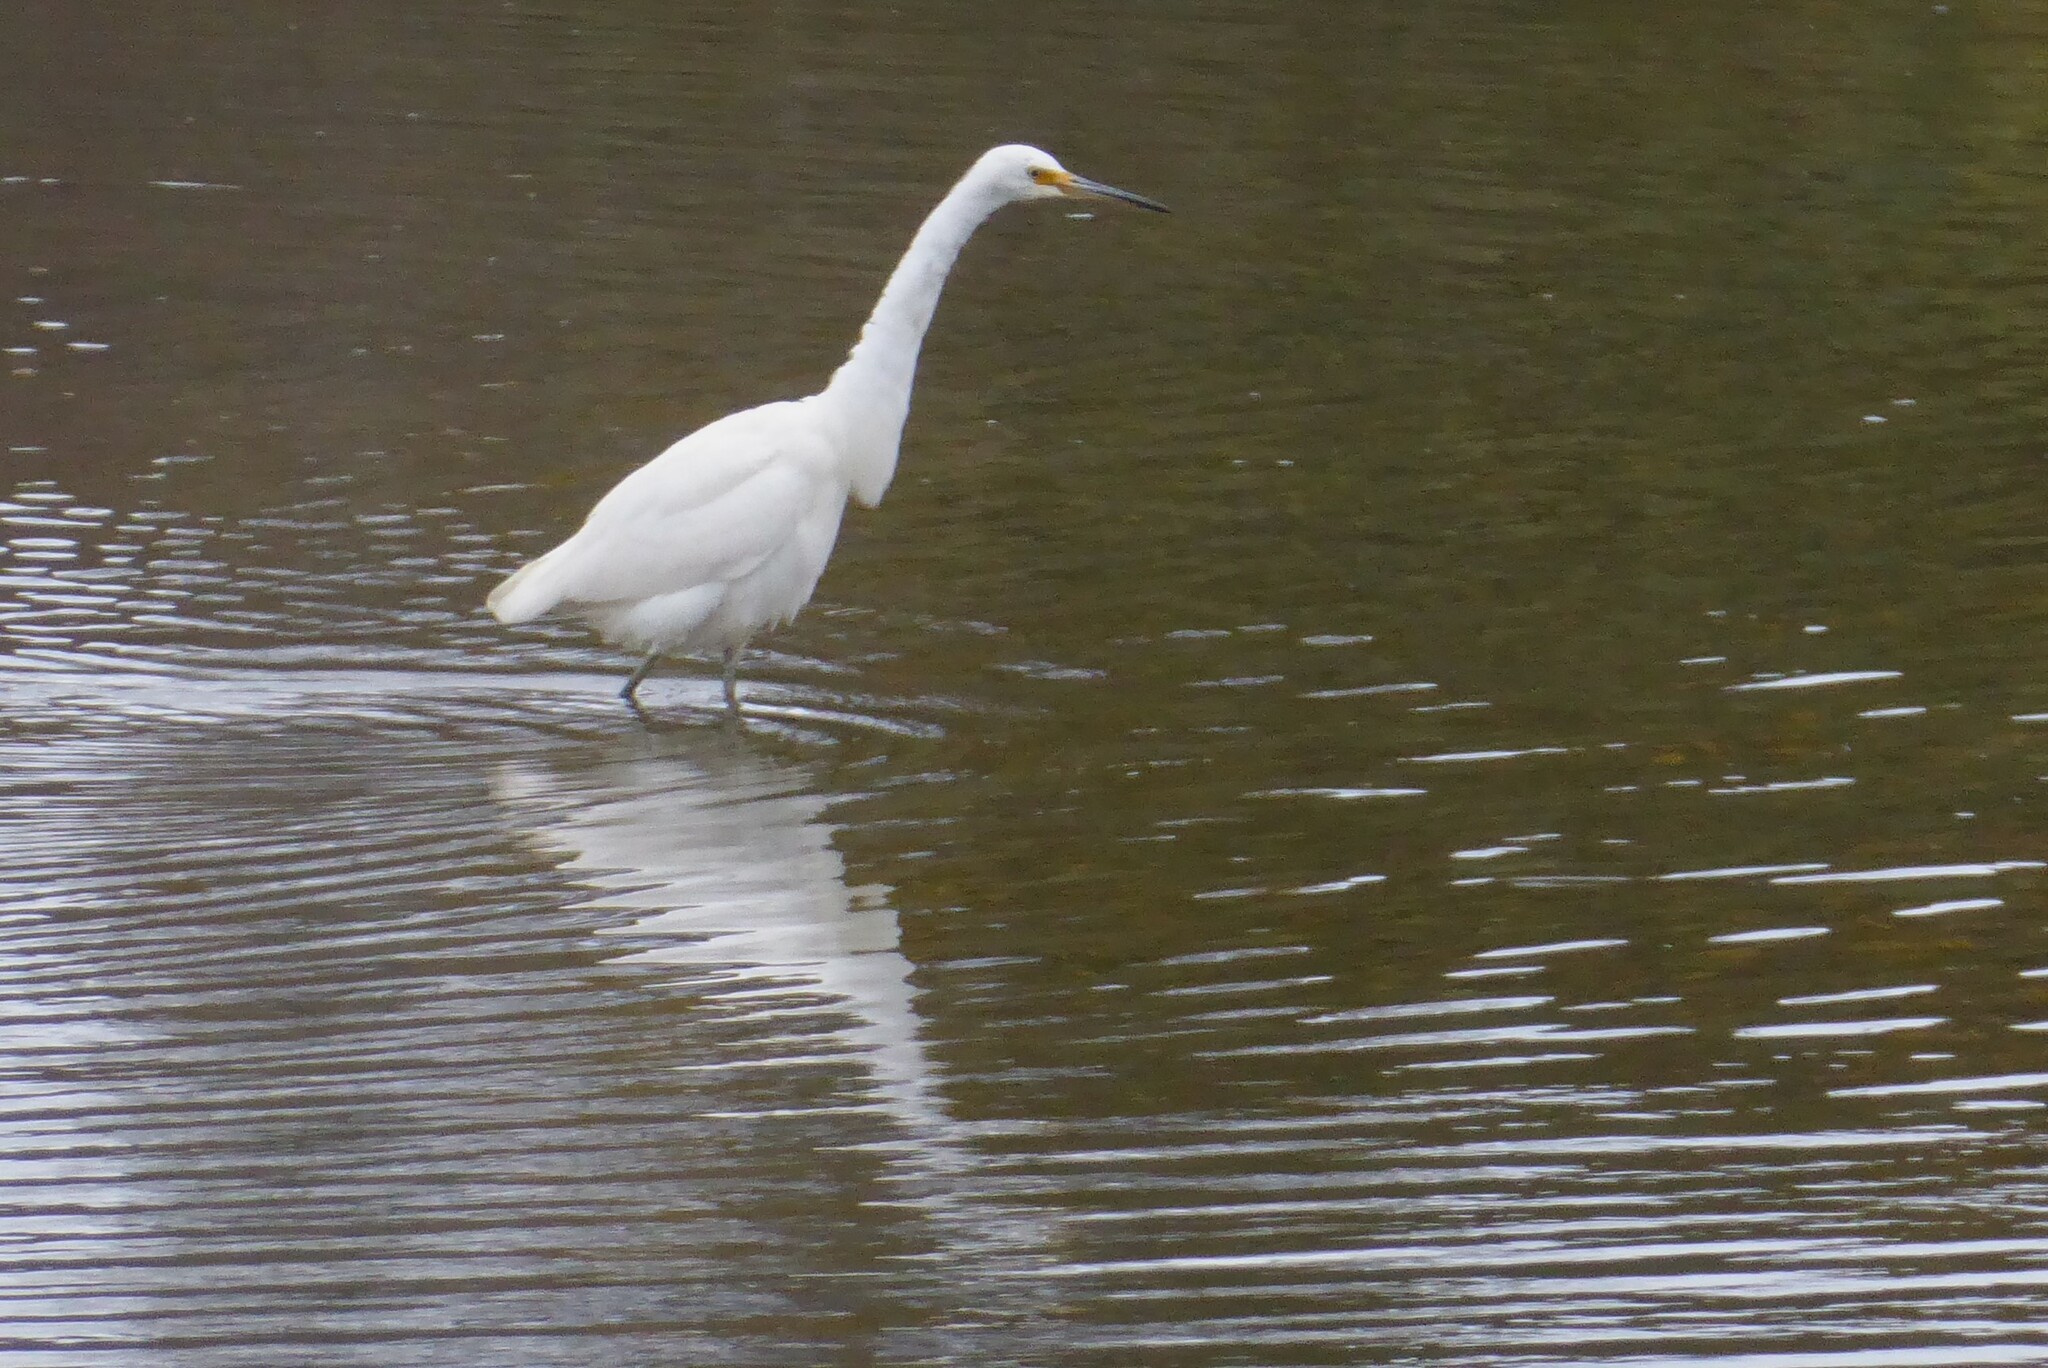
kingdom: Animalia
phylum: Chordata
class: Aves
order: Pelecaniformes
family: Ardeidae
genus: Egretta
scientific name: Egretta garzetta
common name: Little egret
